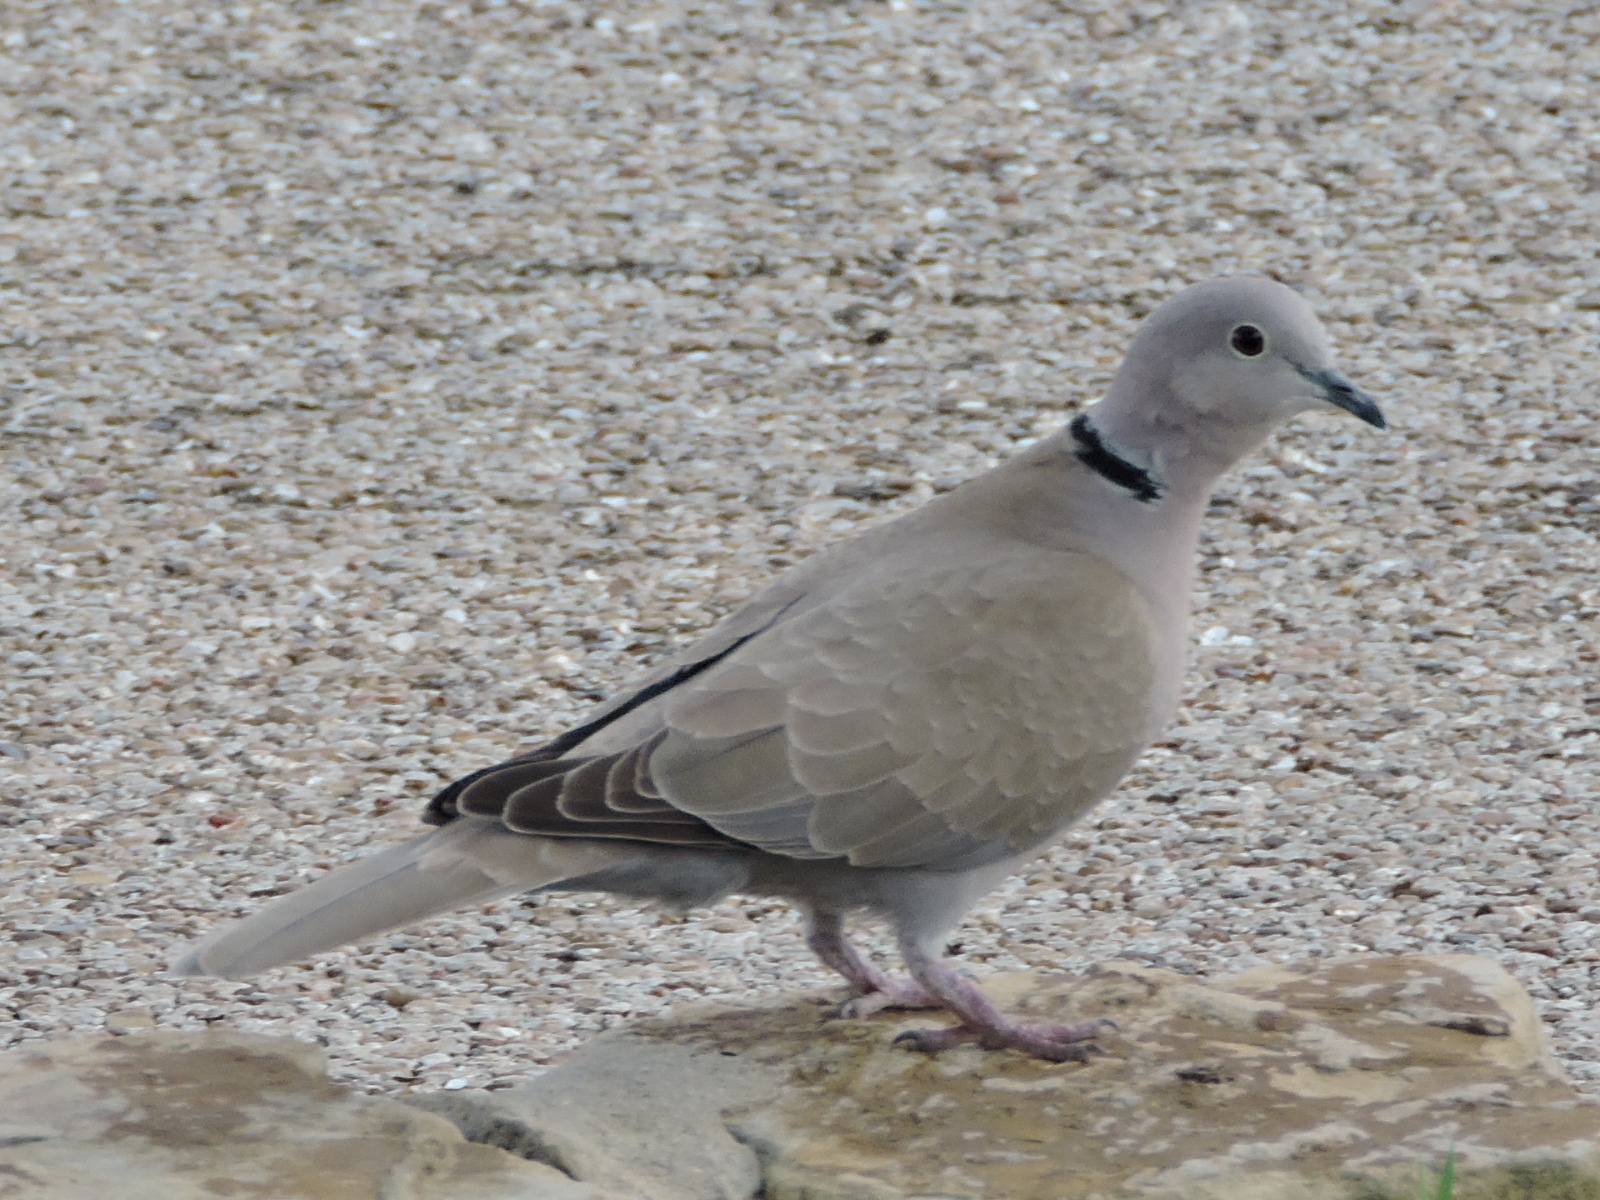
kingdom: Animalia
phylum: Chordata
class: Aves
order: Columbiformes
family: Columbidae
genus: Streptopelia
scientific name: Streptopelia decaocto
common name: Eurasian collared dove
